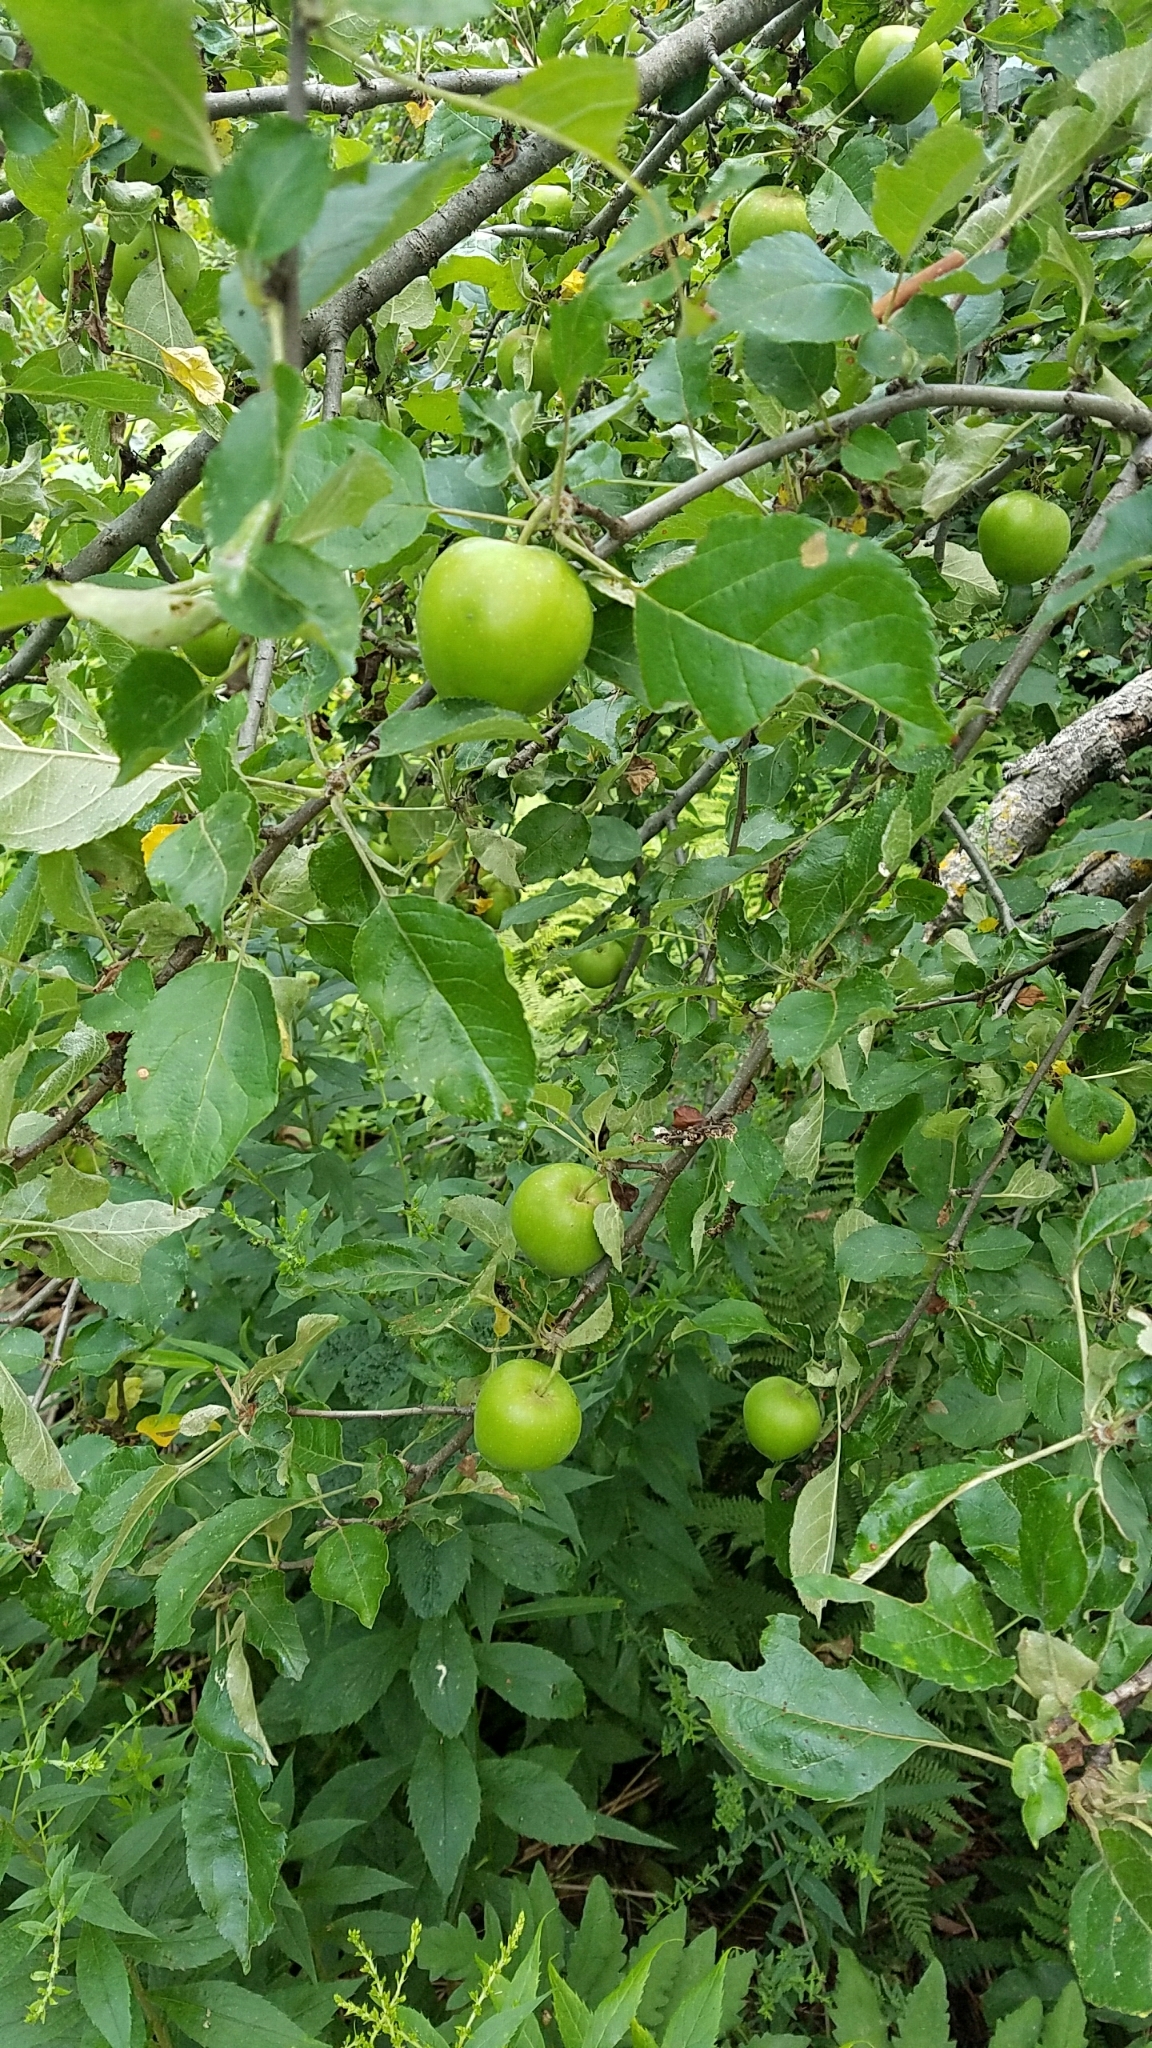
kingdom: Plantae
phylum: Tracheophyta
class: Magnoliopsida
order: Rosales
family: Rosaceae
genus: Malus
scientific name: Malus domestica
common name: Apple
